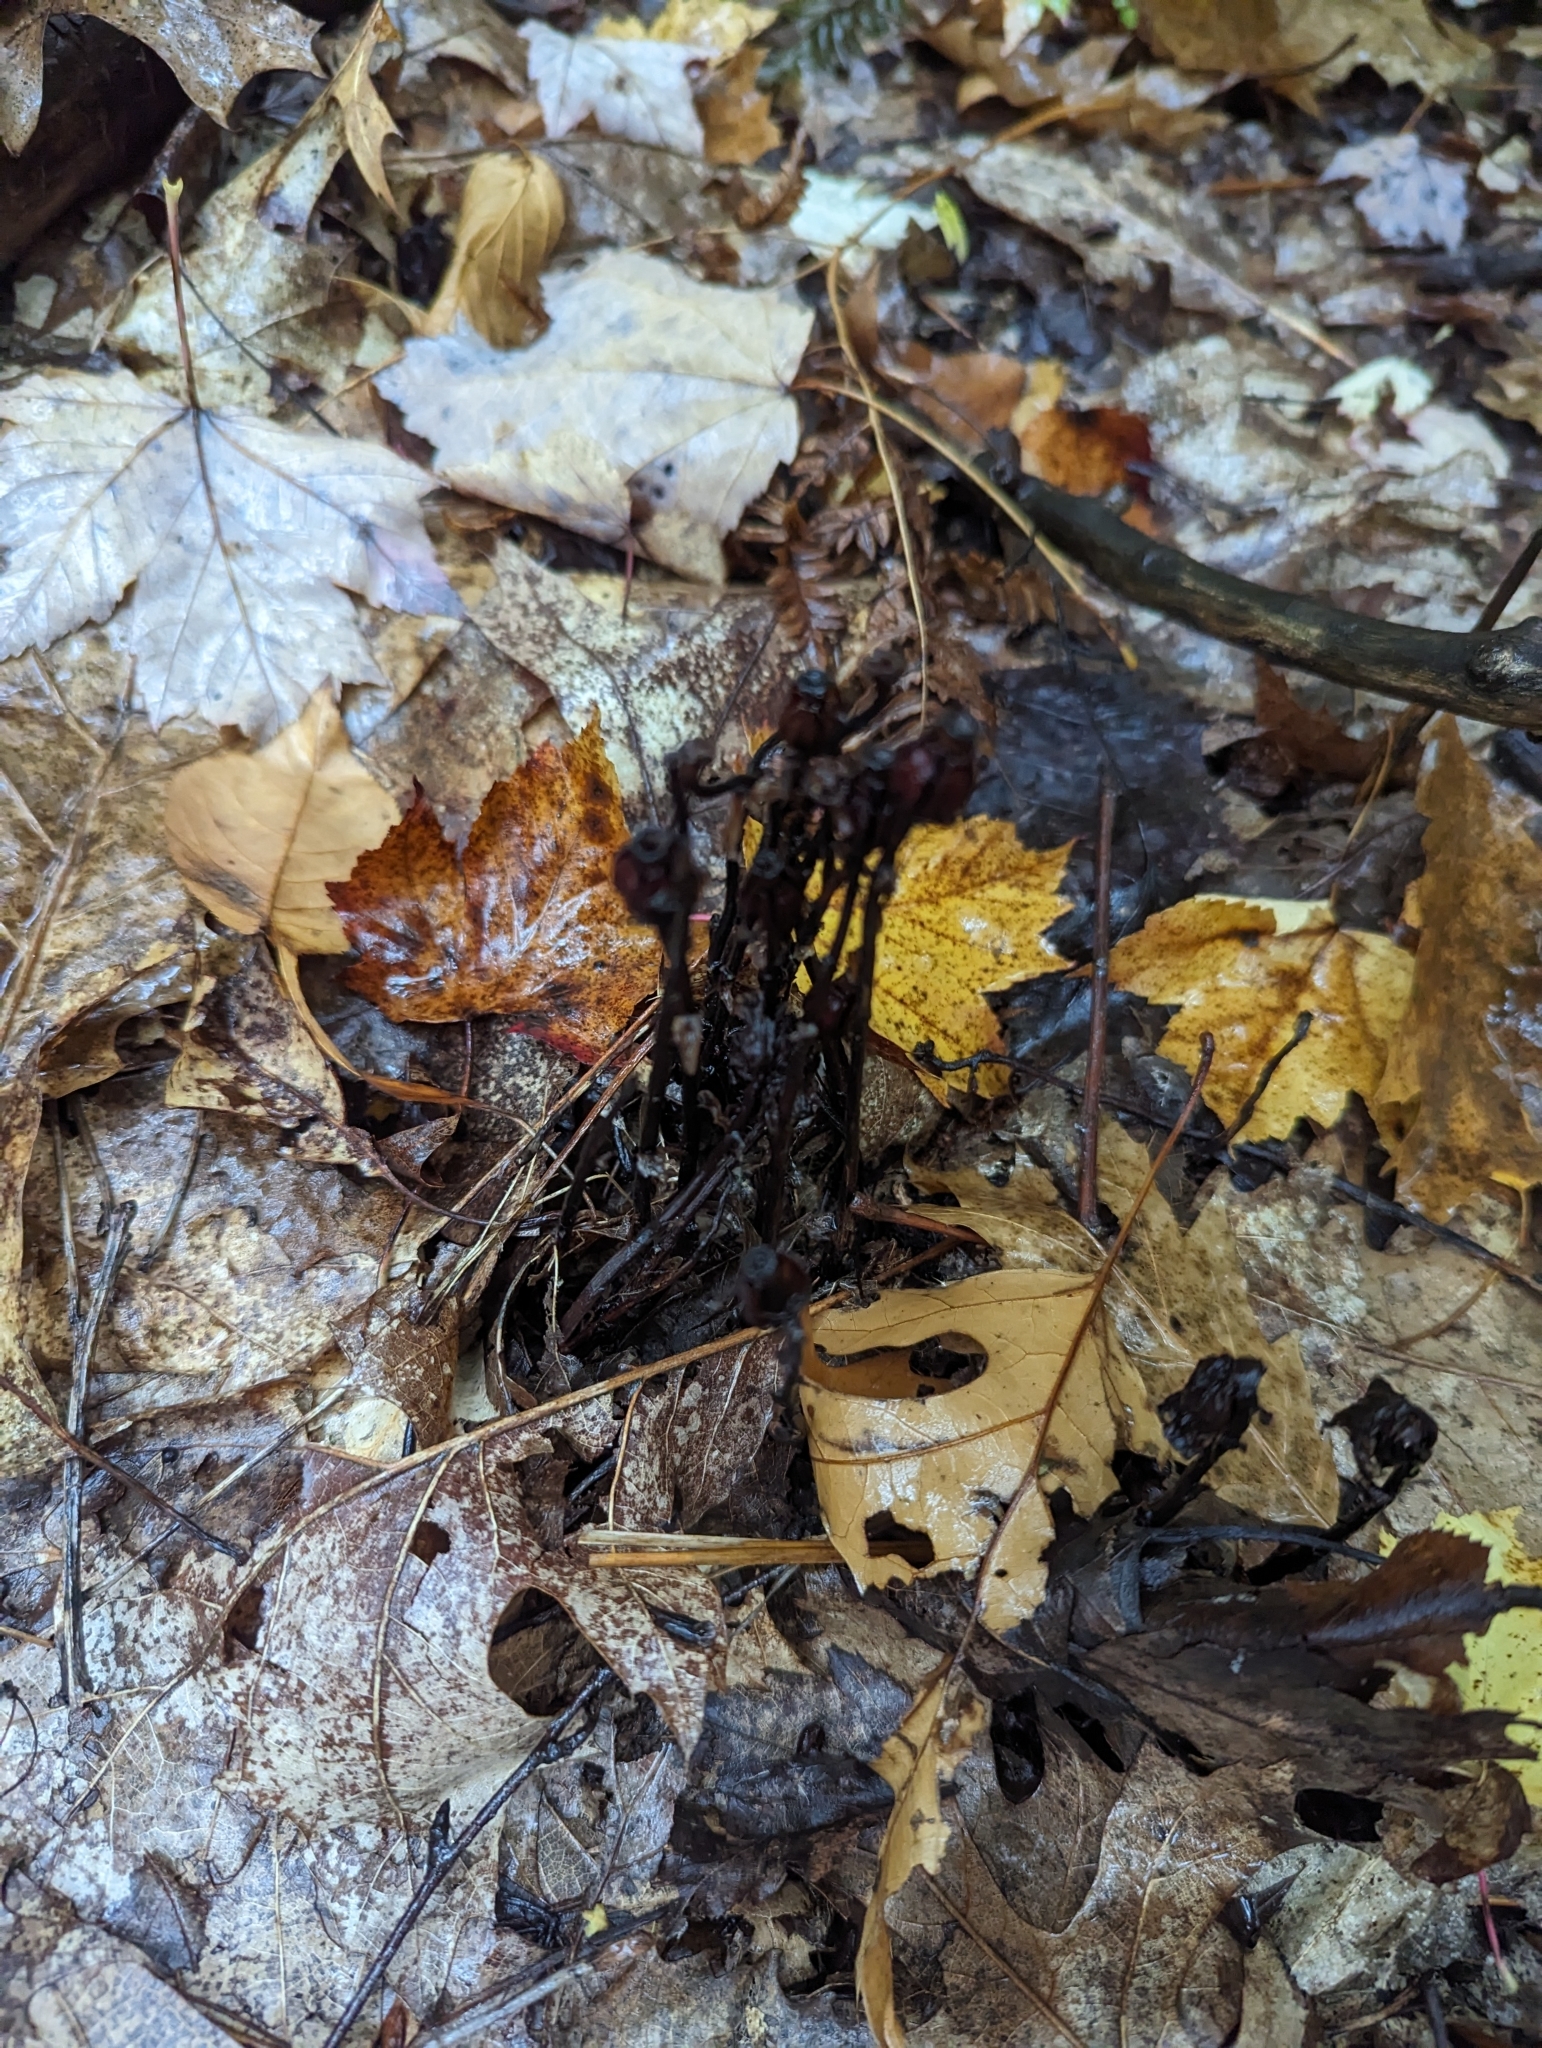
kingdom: Plantae
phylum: Tracheophyta
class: Magnoliopsida
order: Ericales
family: Ericaceae
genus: Monotropa
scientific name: Monotropa uniflora
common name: Convulsion root
